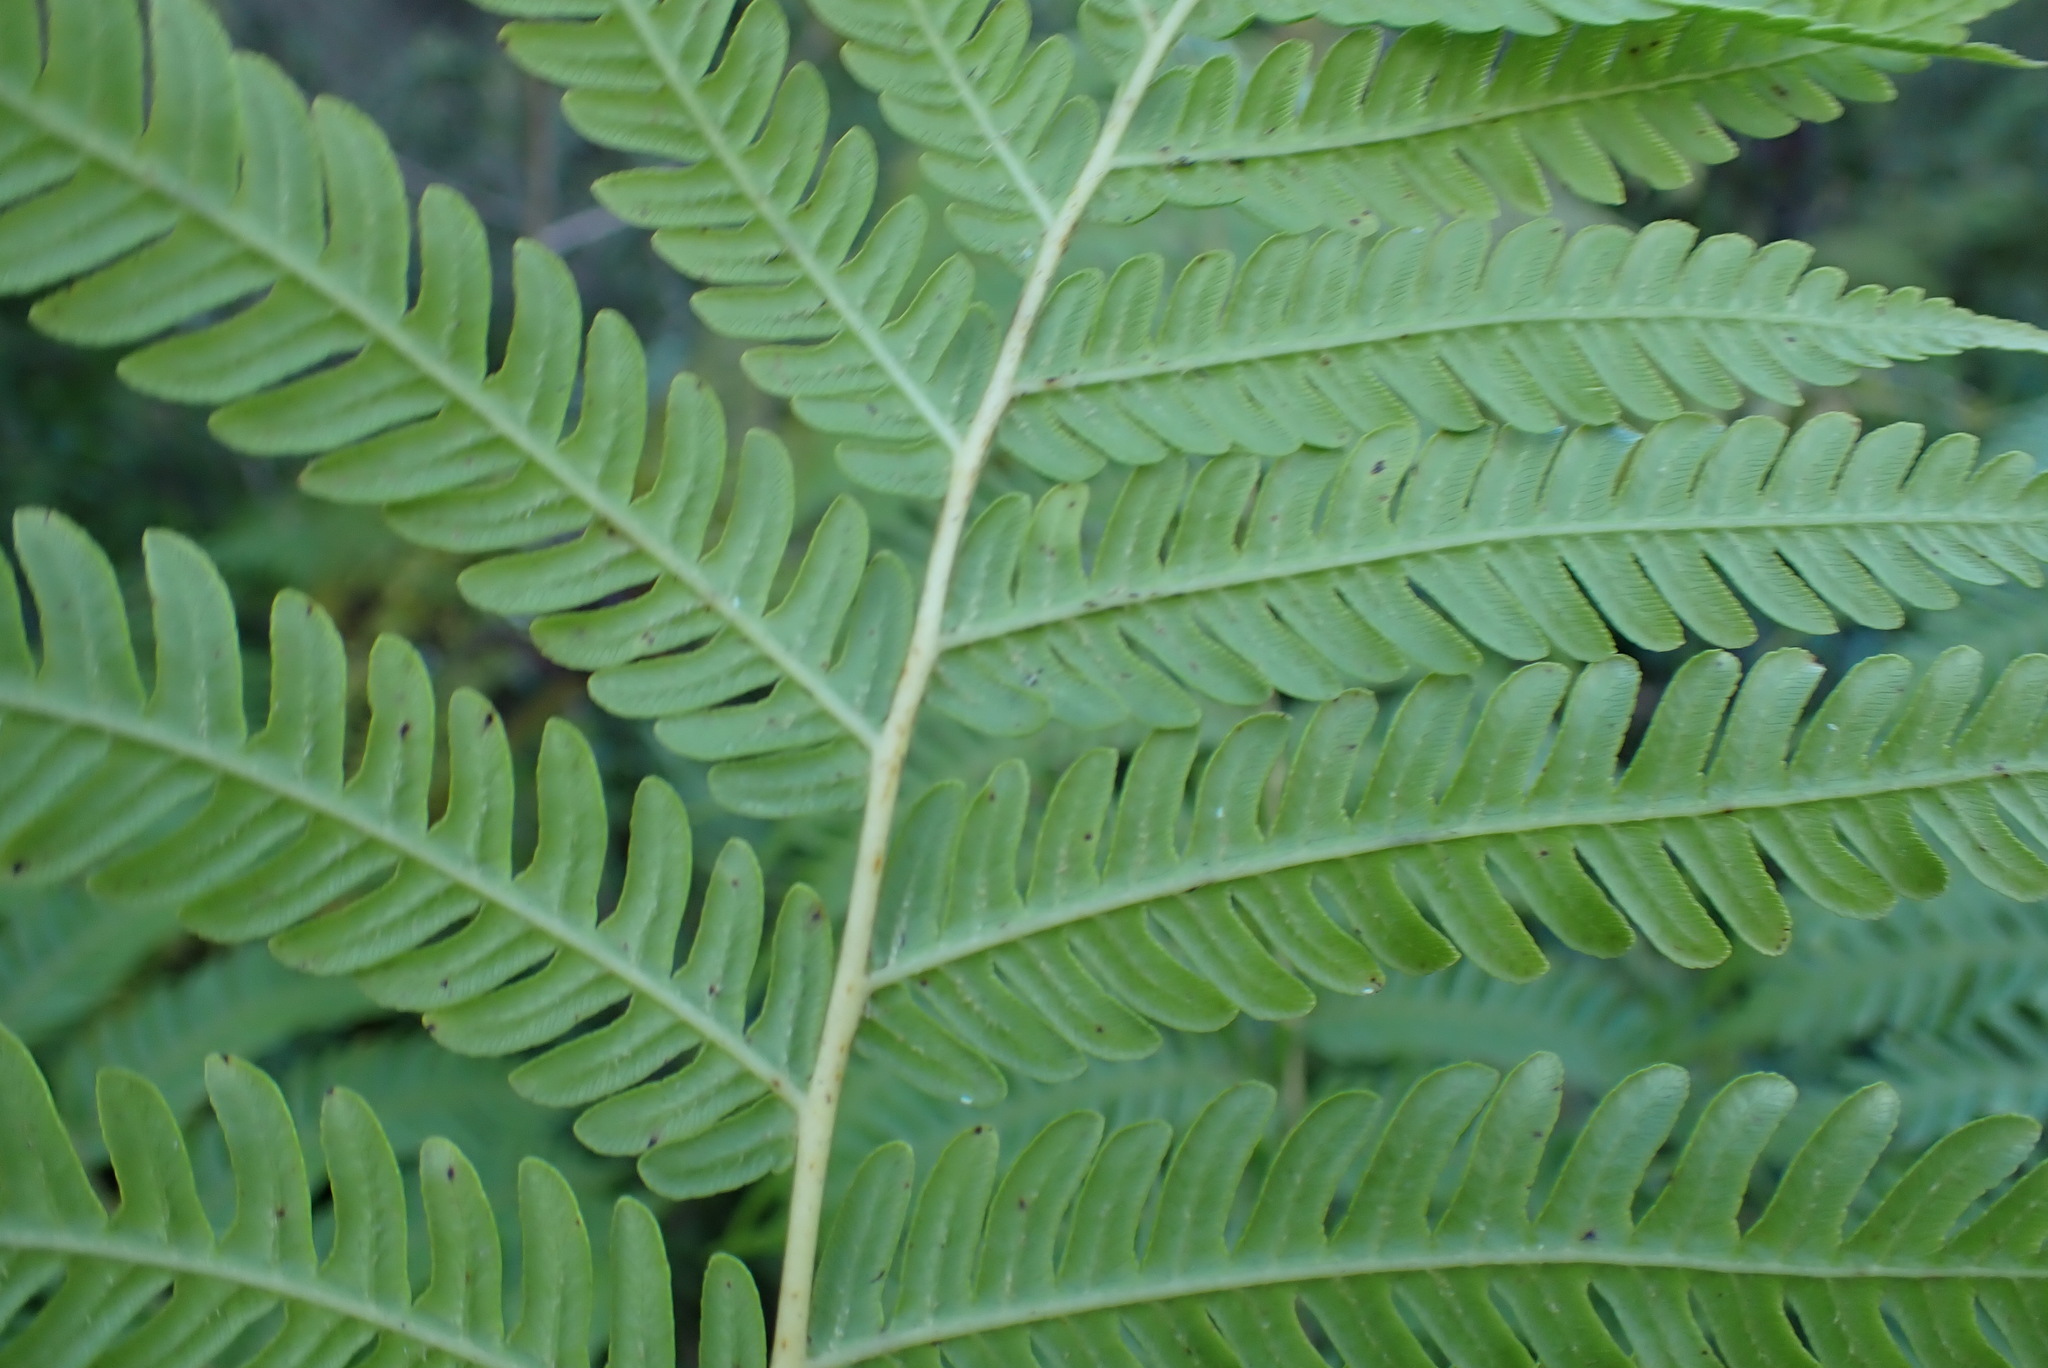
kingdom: Plantae
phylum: Tracheophyta
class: Polypodiopsida
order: Cyatheales
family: Cyatheaceae
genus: Sphaeropteris
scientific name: Sphaeropteris cooperi
